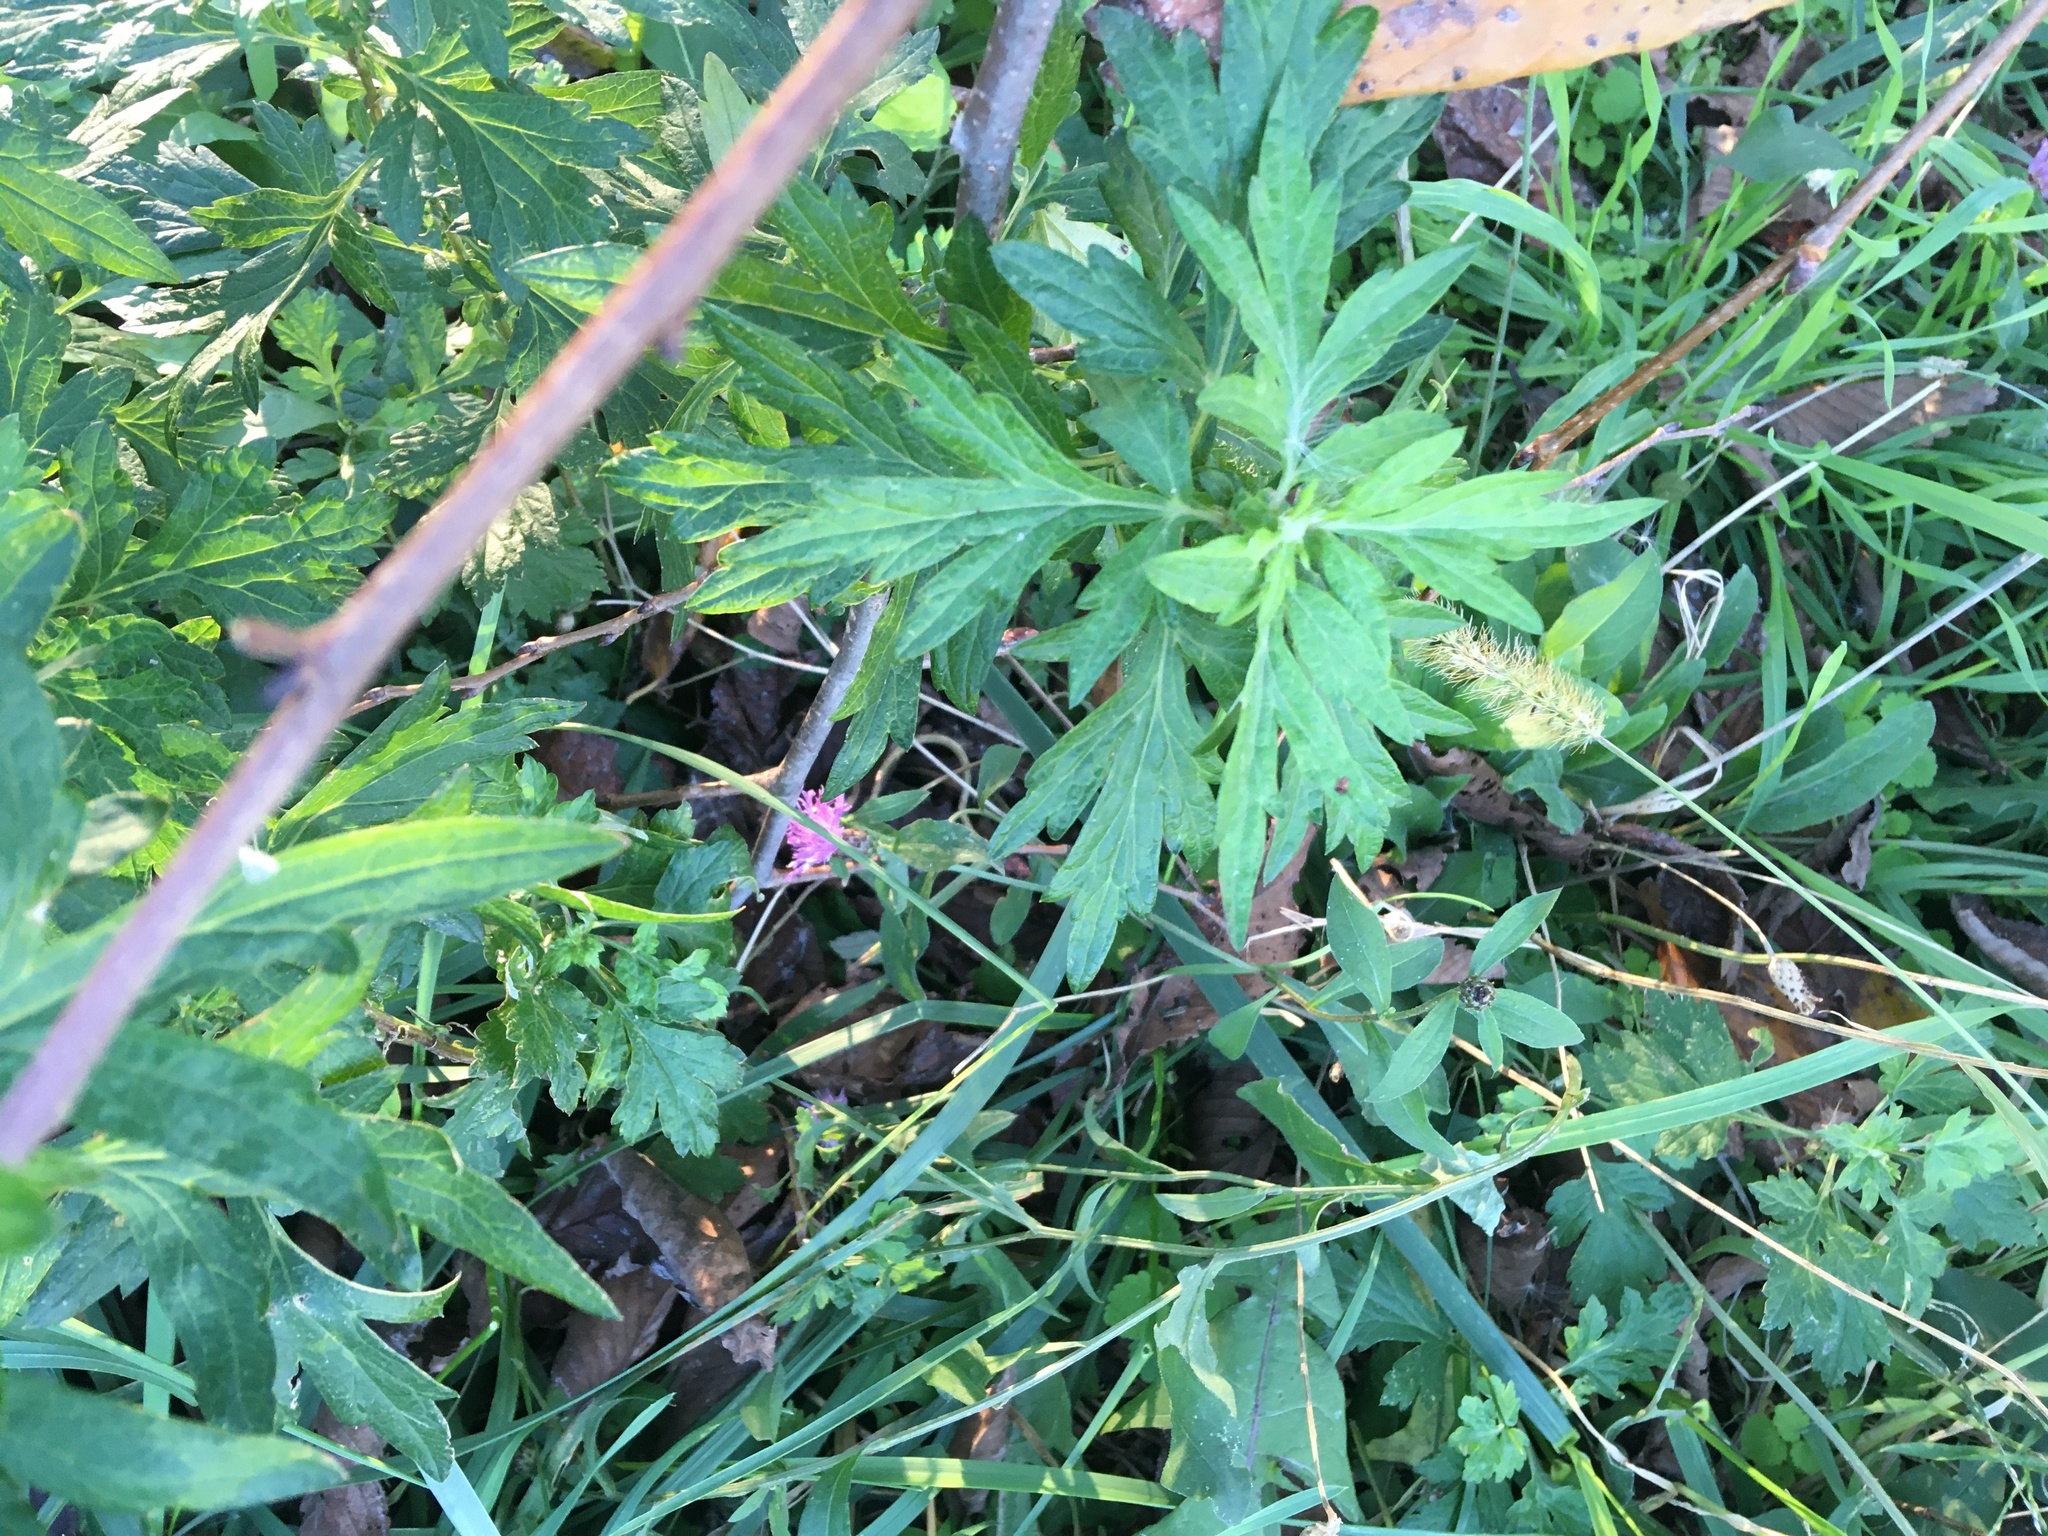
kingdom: Plantae
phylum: Tracheophyta
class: Magnoliopsida
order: Asterales
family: Asteraceae
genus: Artemisia
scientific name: Artemisia vulgaris
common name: Mugwort
